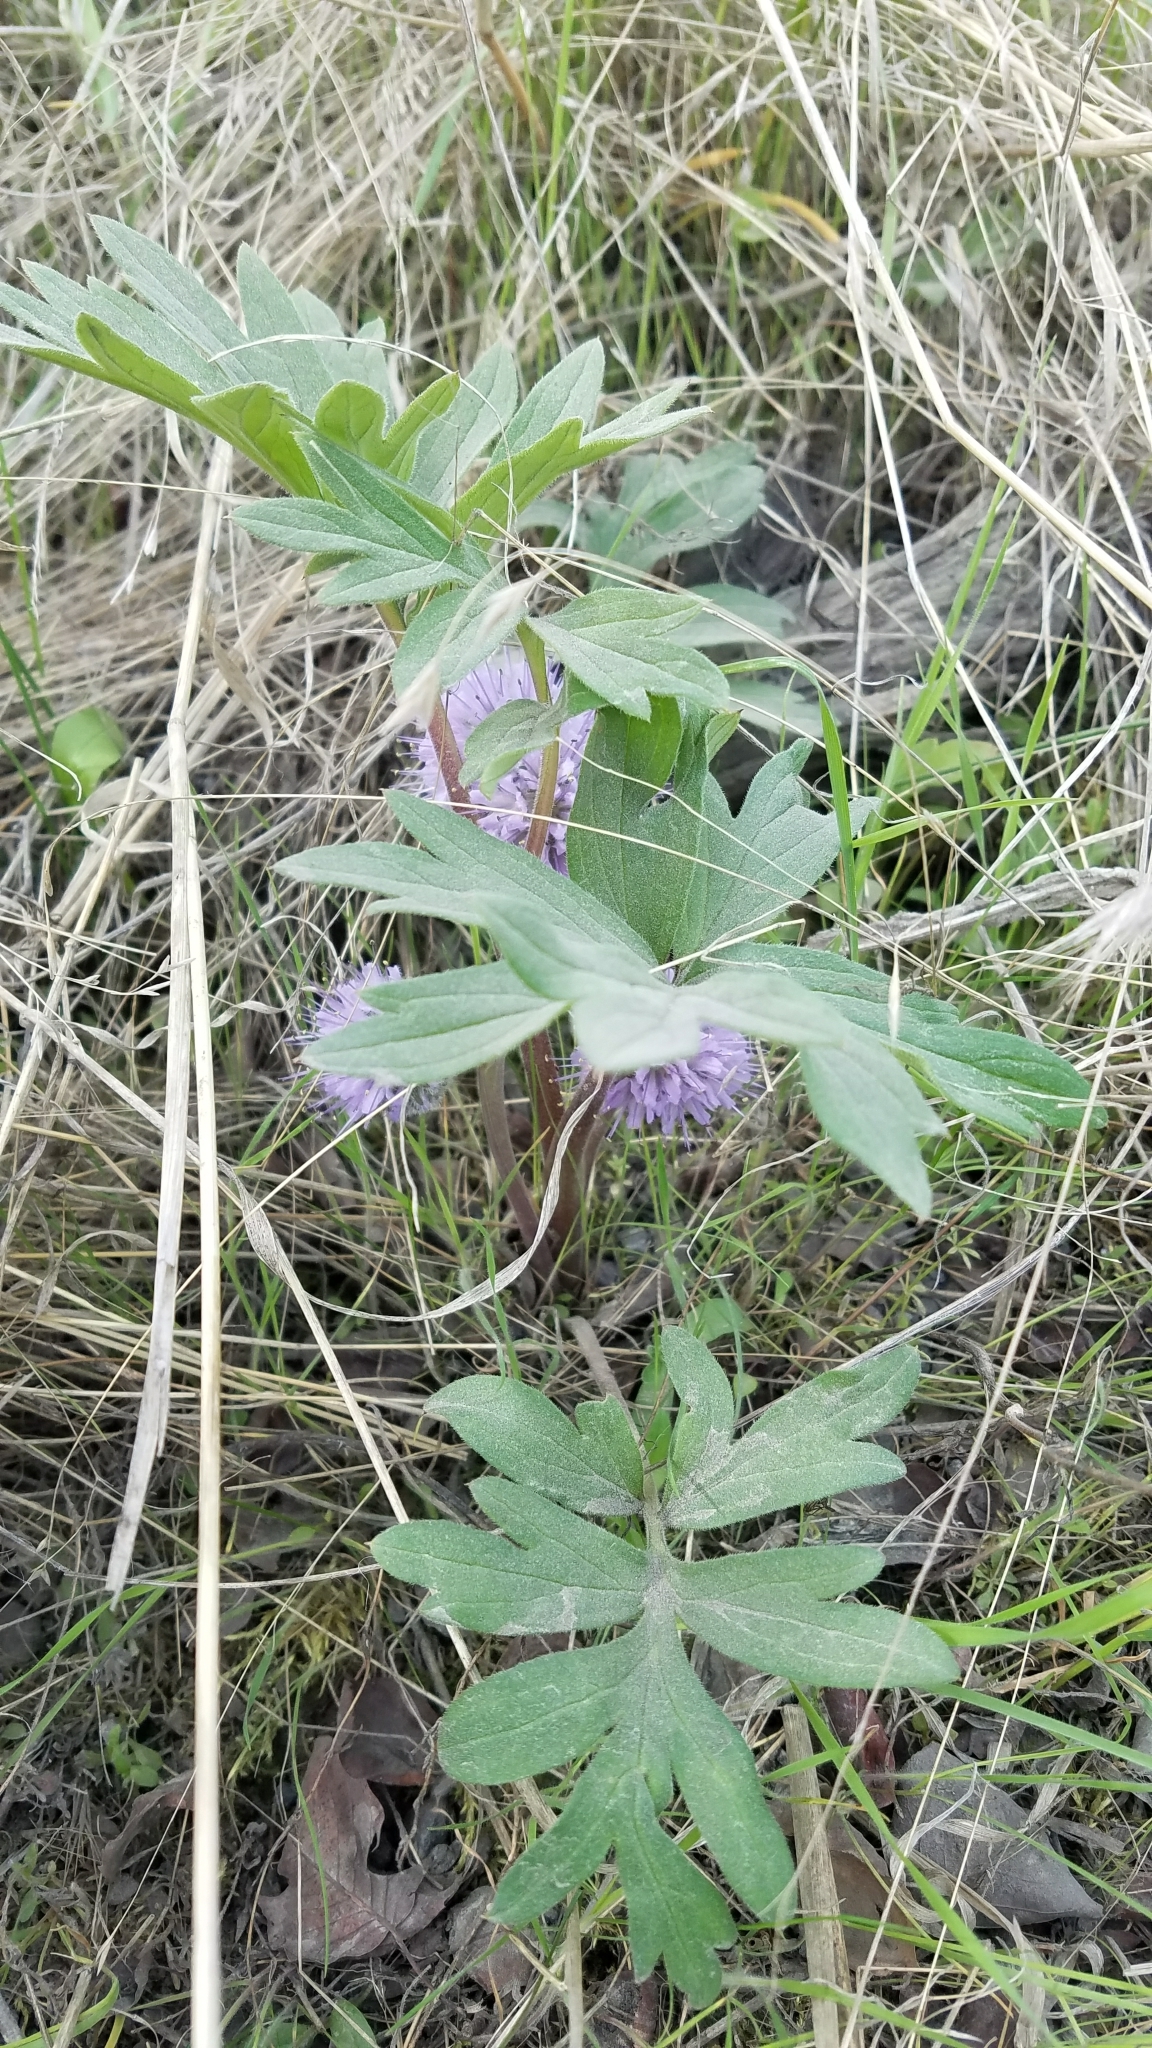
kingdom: Plantae
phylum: Tracheophyta
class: Magnoliopsida
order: Boraginales
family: Hydrophyllaceae
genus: Hydrophyllum
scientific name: Hydrophyllum capitatum
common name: Woollen-breeches
